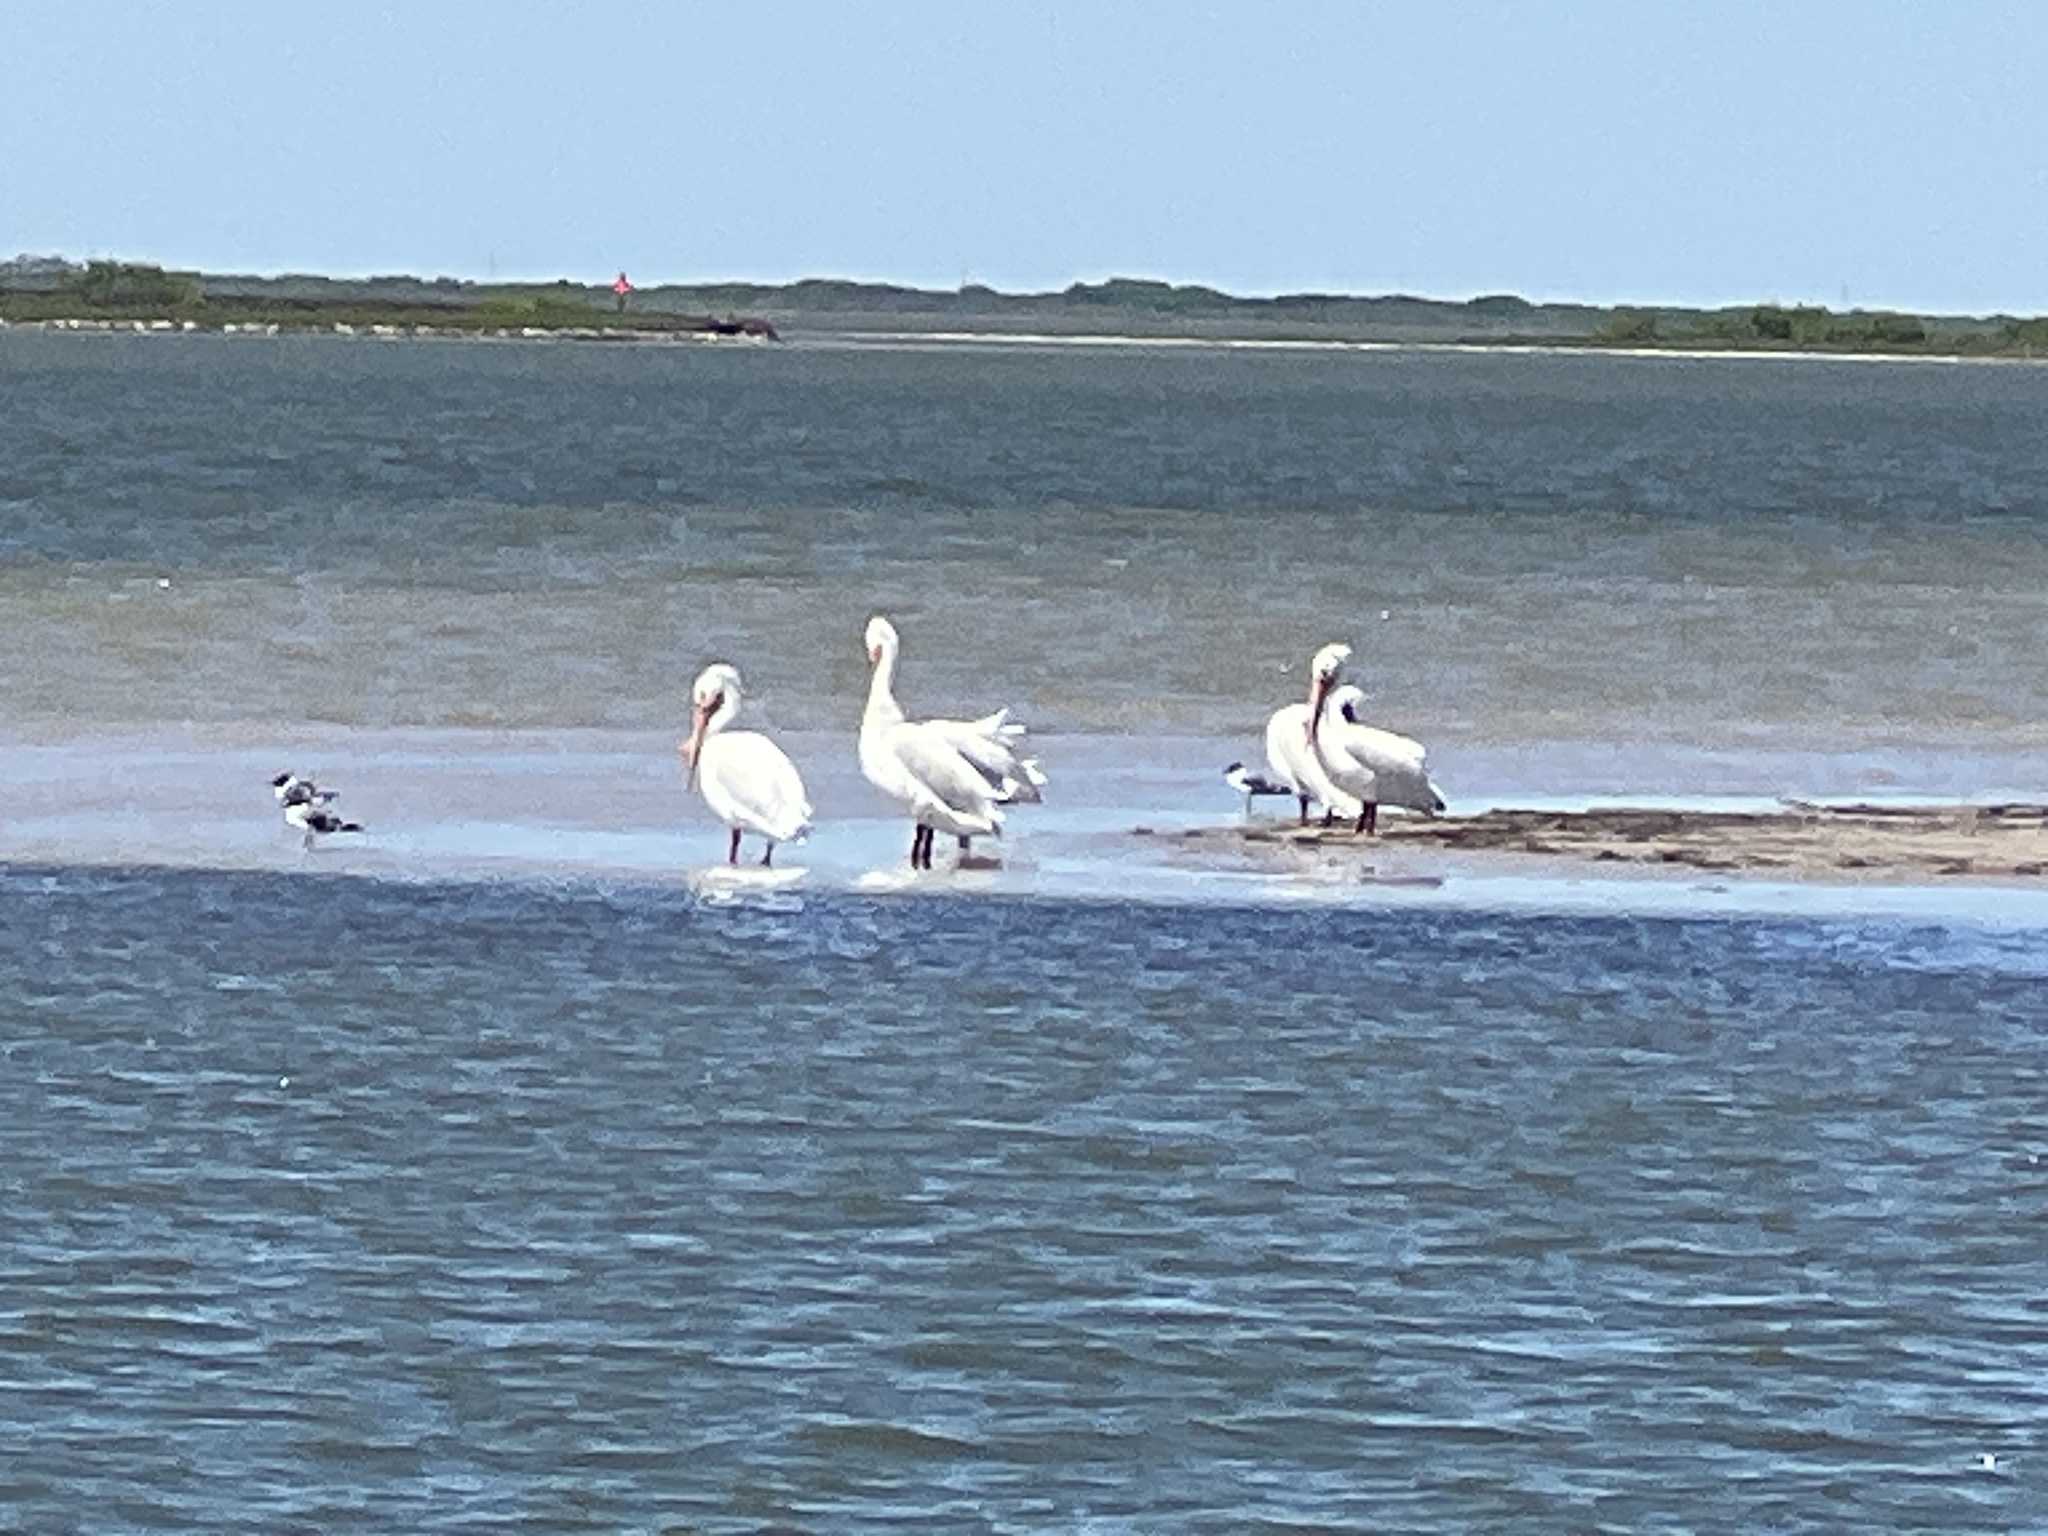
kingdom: Animalia
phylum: Chordata
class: Aves
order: Pelecaniformes
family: Pelecanidae
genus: Pelecanus
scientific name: Pelecanus erythrorhynchos
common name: American white pelican
